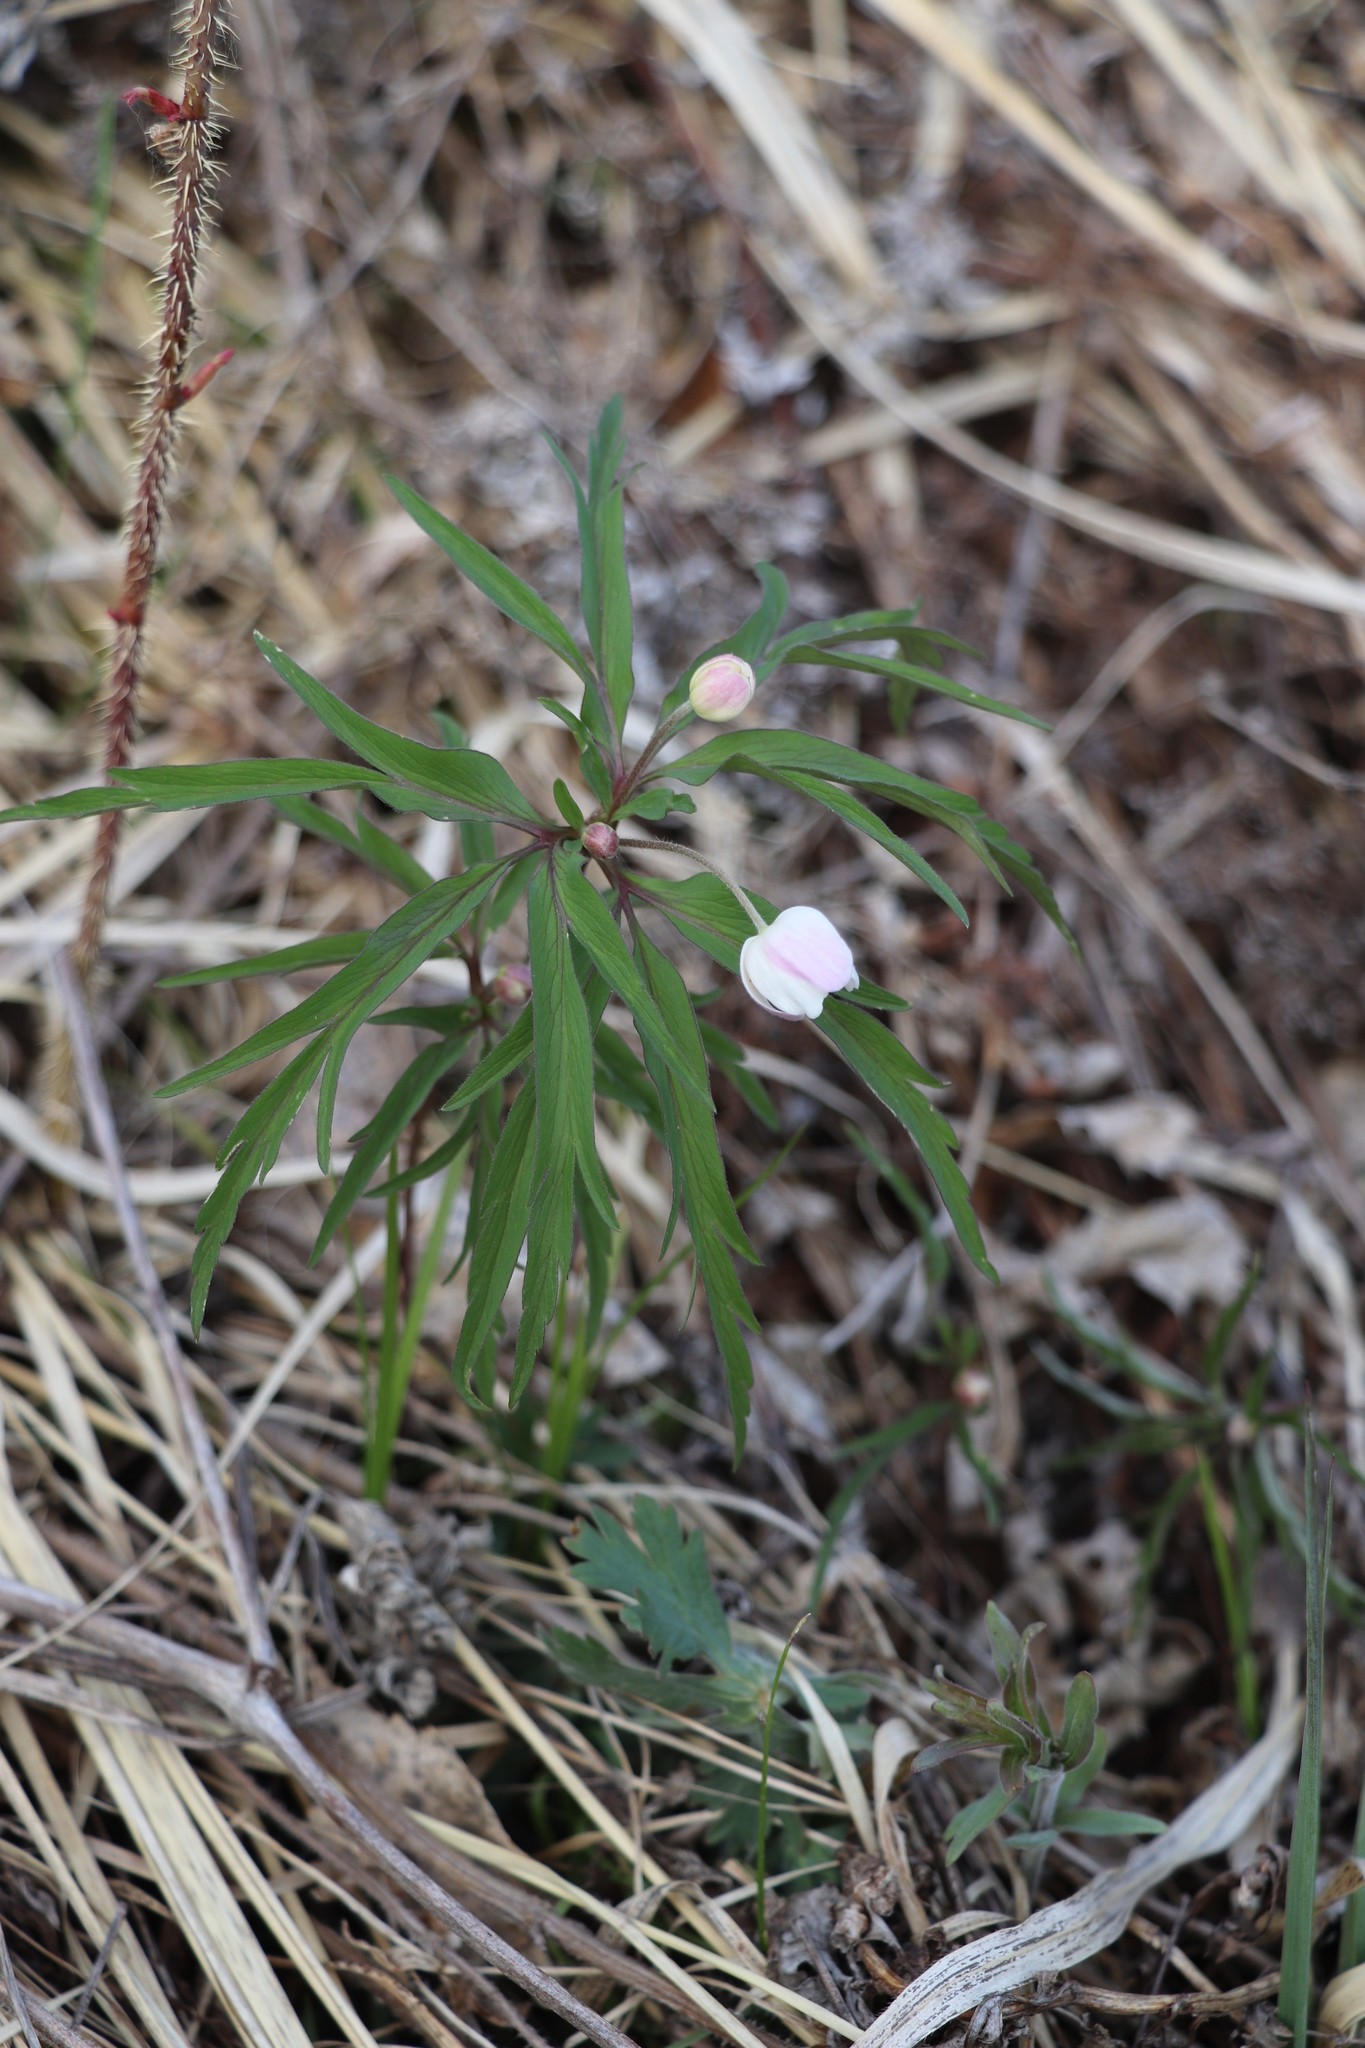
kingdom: Plantae
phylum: Tracheophyta
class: Magnoliopsida
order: Ranunculales
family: Ranunculaceae
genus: Anemone
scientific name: Anemone caerulea
